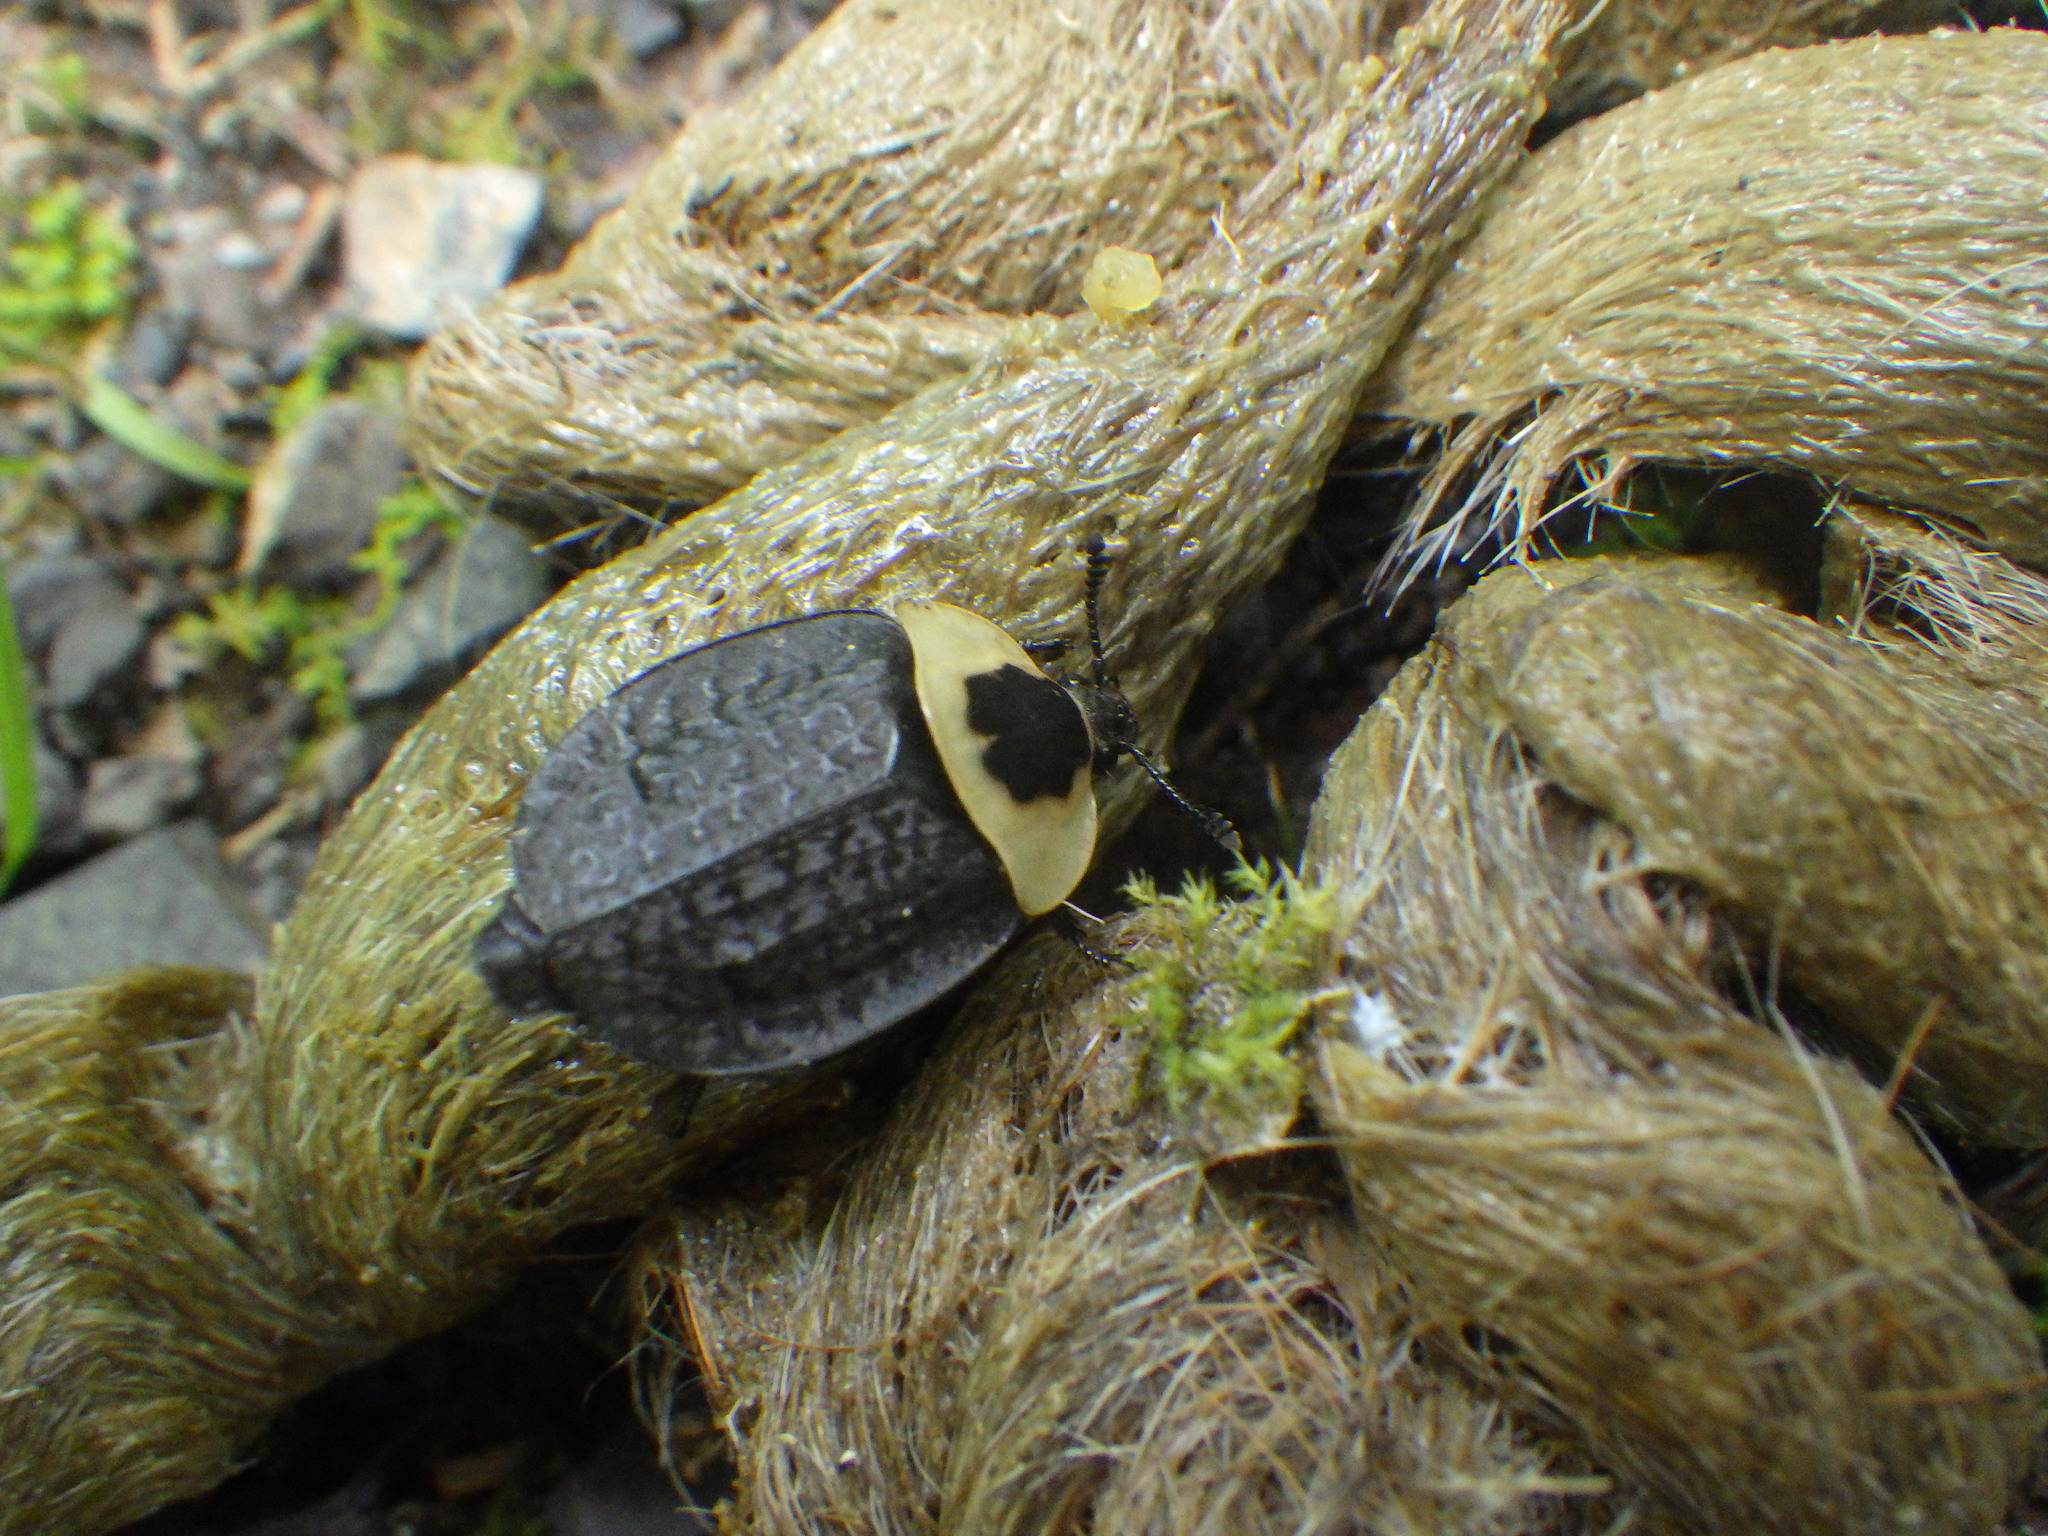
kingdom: Animalia
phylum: Arthropoda
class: Insecta
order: Coleoptera
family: Staphylinidae
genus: Necrophila
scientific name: Necrophila americana
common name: American carrion beetle
